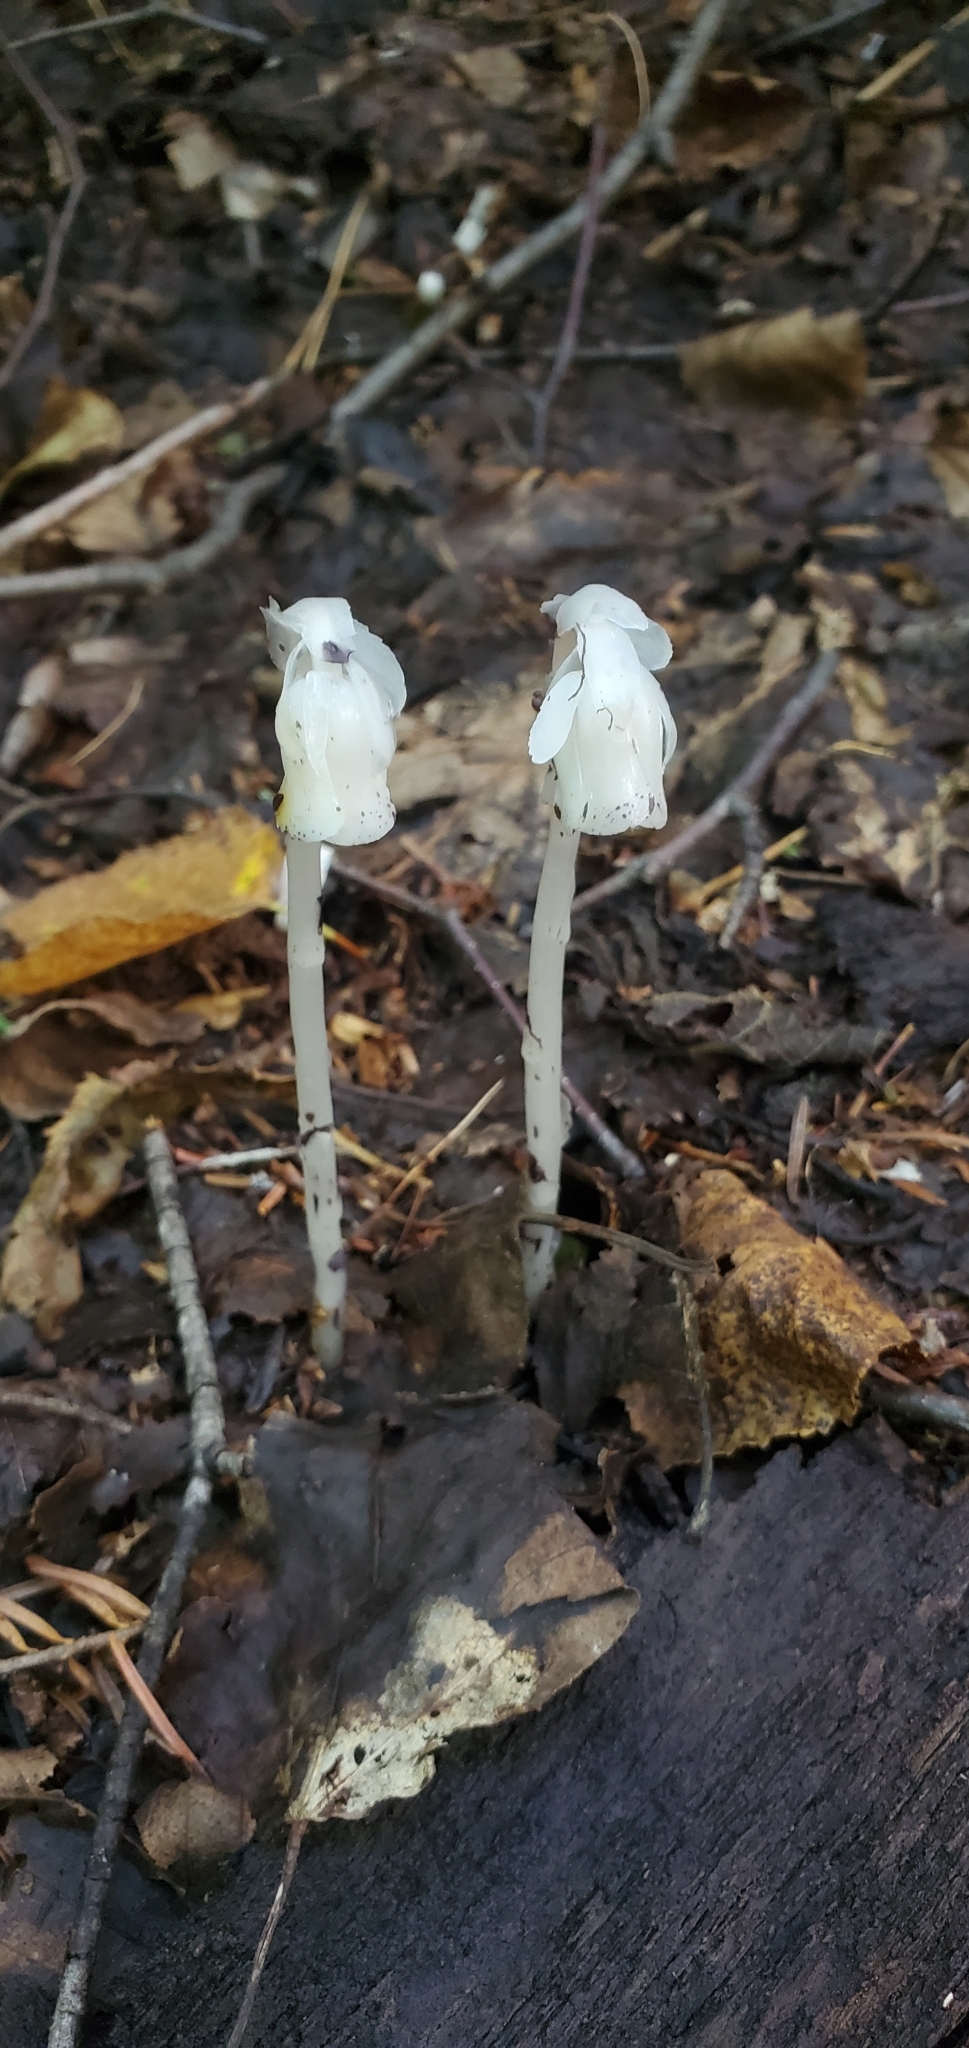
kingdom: Plantae
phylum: Tracheophyta
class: Magnoliopsida
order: Ericales
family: Ericaceae
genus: Monotropa
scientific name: Monotropa uniflora
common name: Convulsion root
